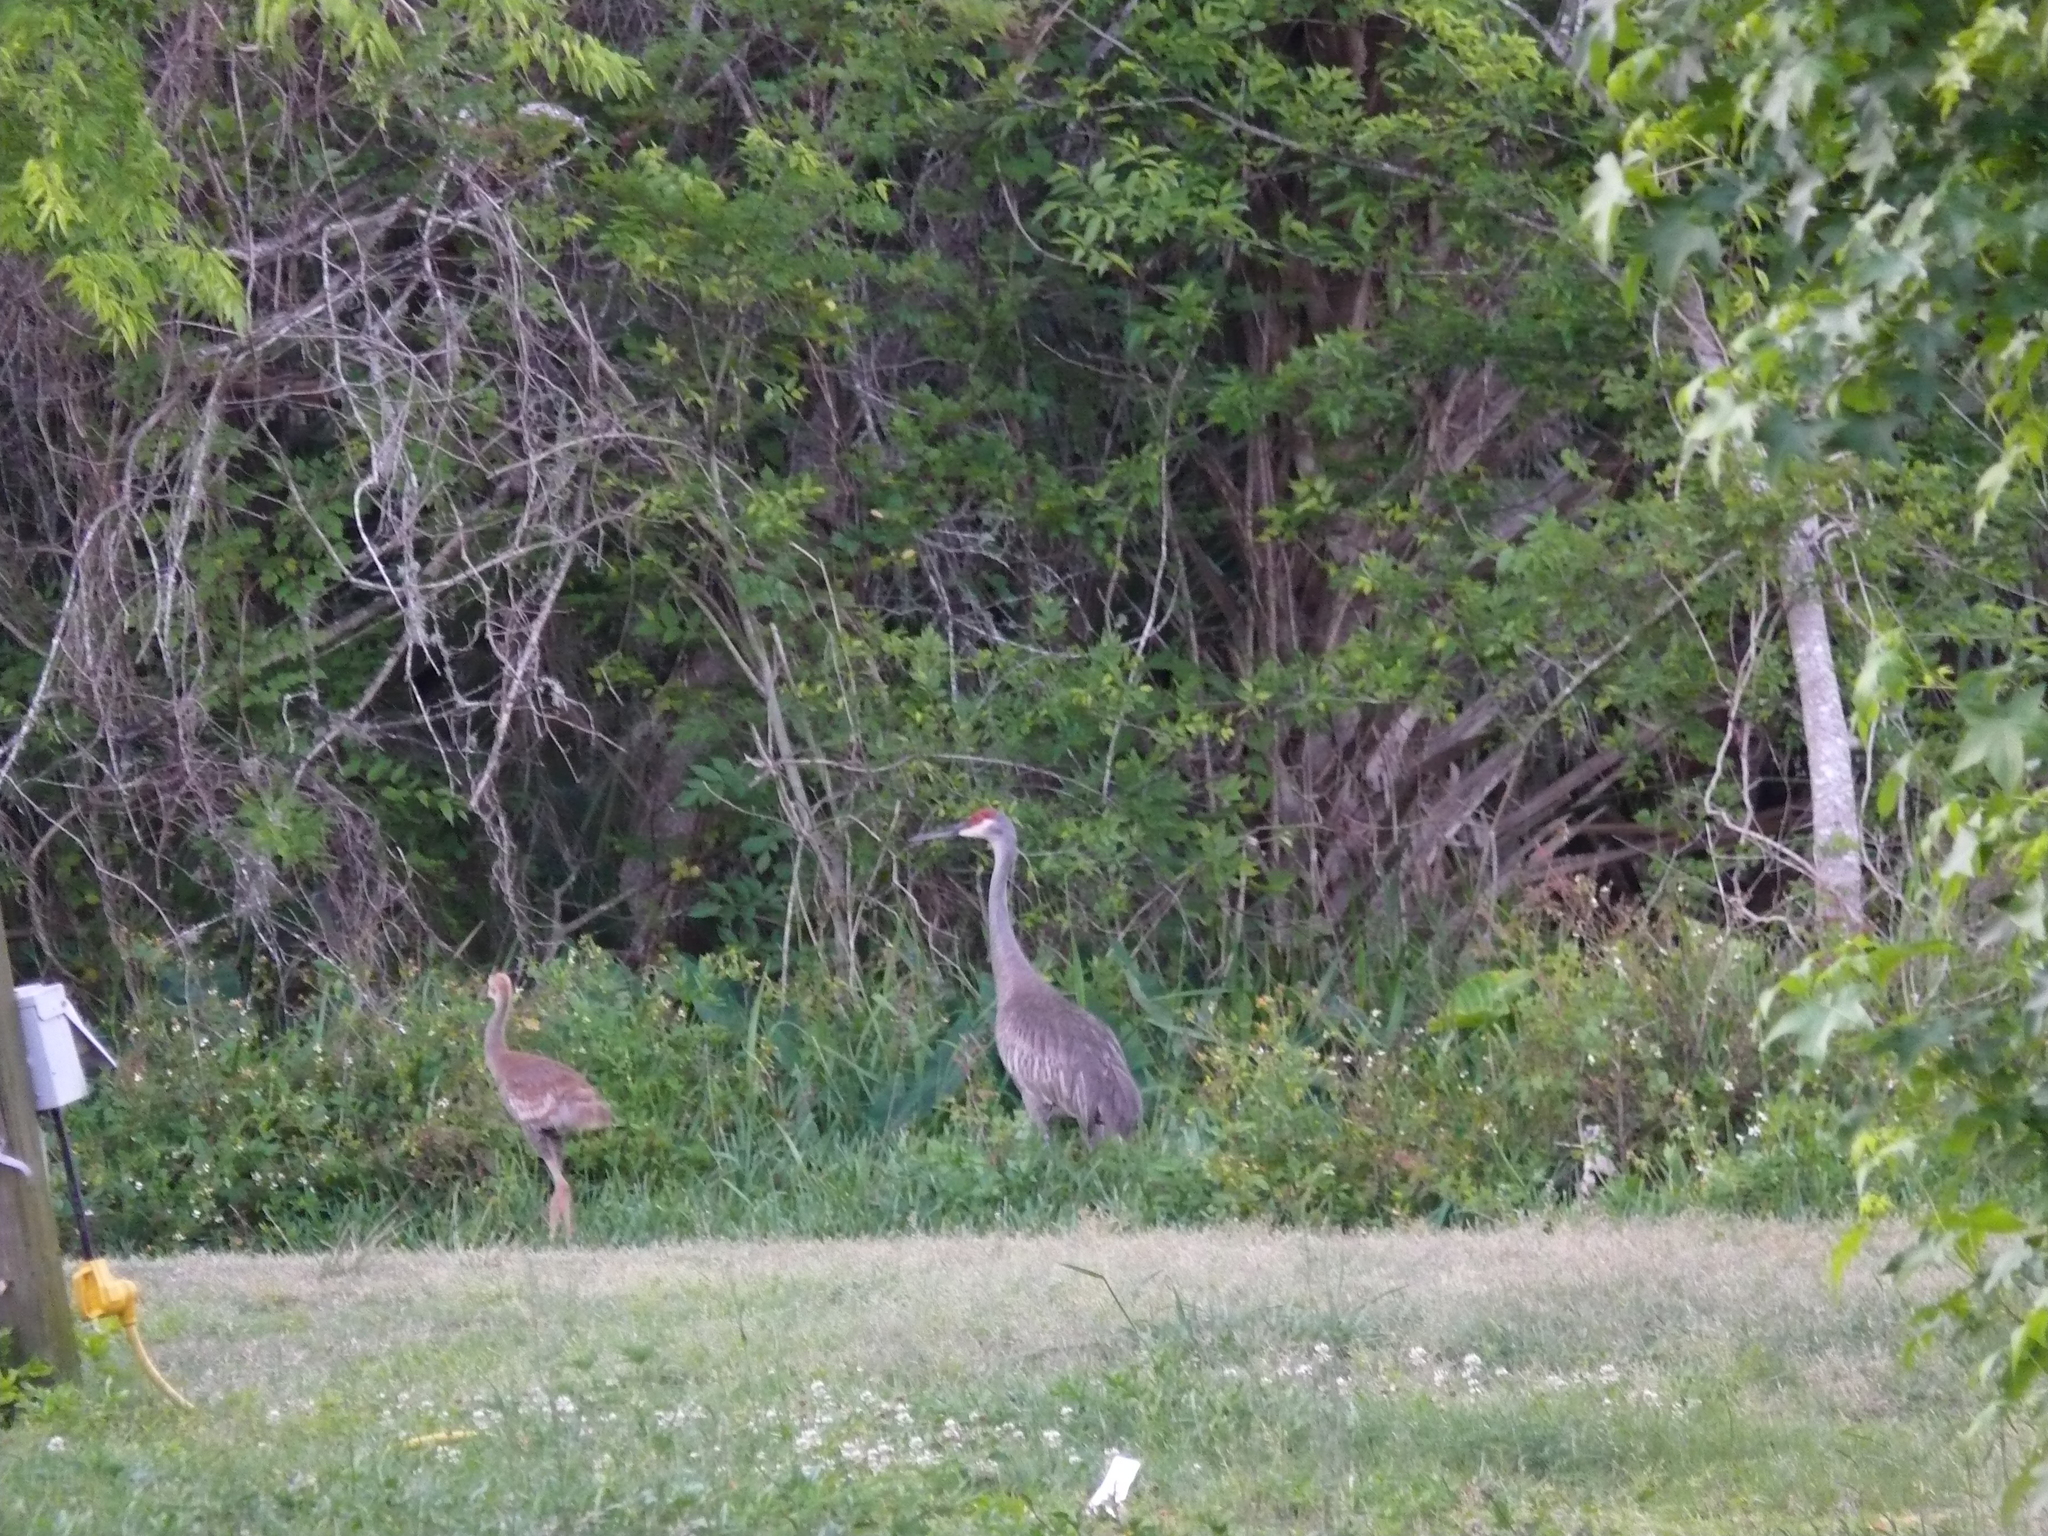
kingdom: Animalia
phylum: Chordata
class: Aves
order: Gruiformes
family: Gruidae
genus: Grus
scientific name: Grus canadensis
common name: Sandhill crane
